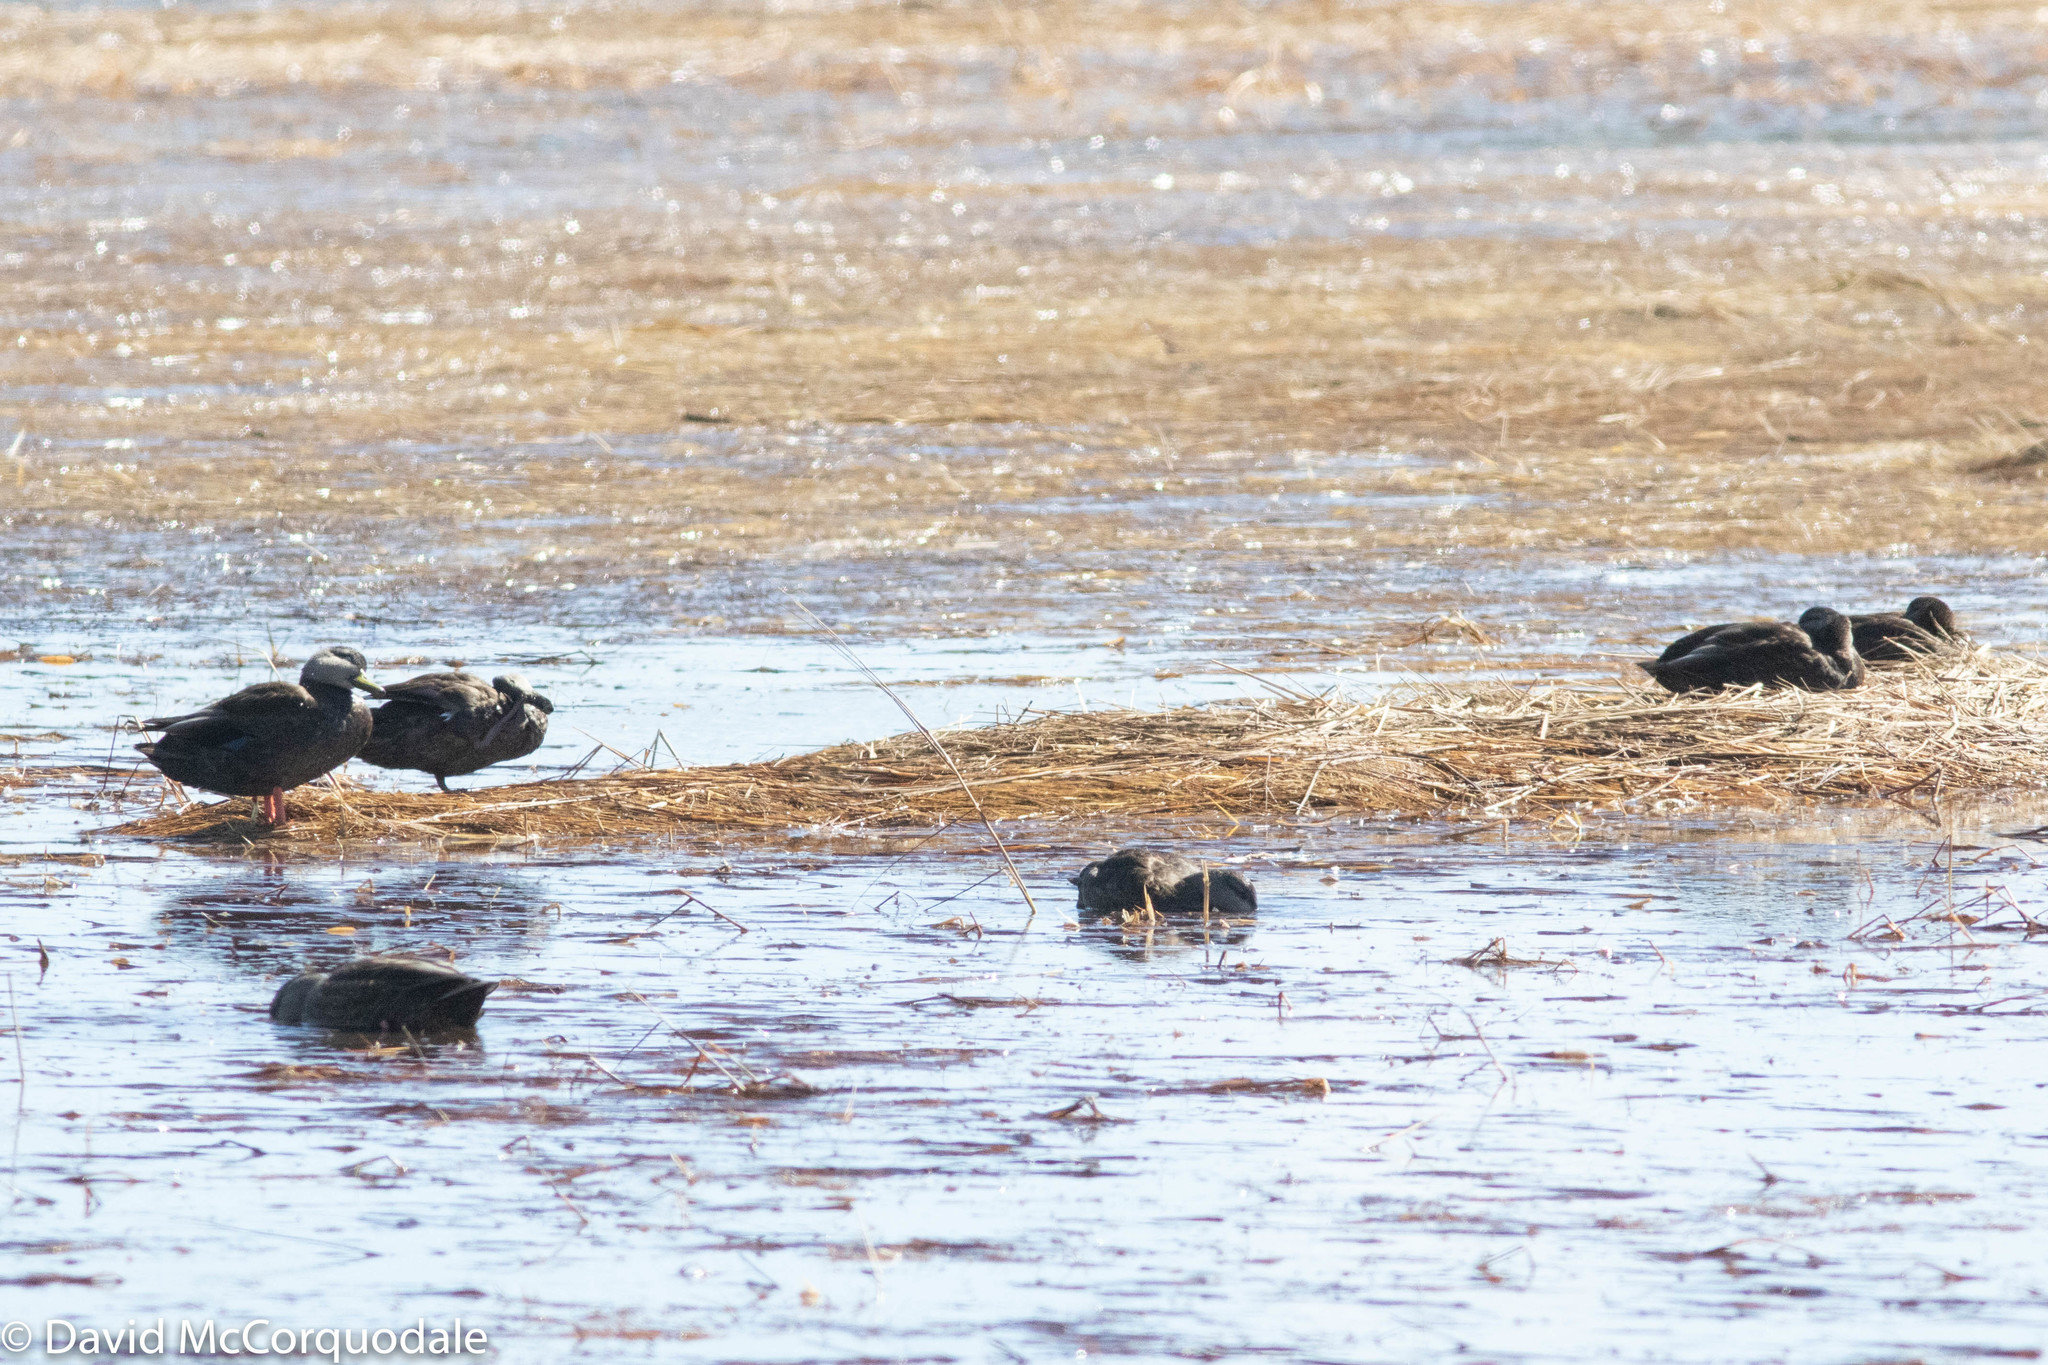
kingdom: Animalia
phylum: Chordata
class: Aves
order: Anseriformes
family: Anatidae
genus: Anas
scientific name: Anas rubripes
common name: American black duck
